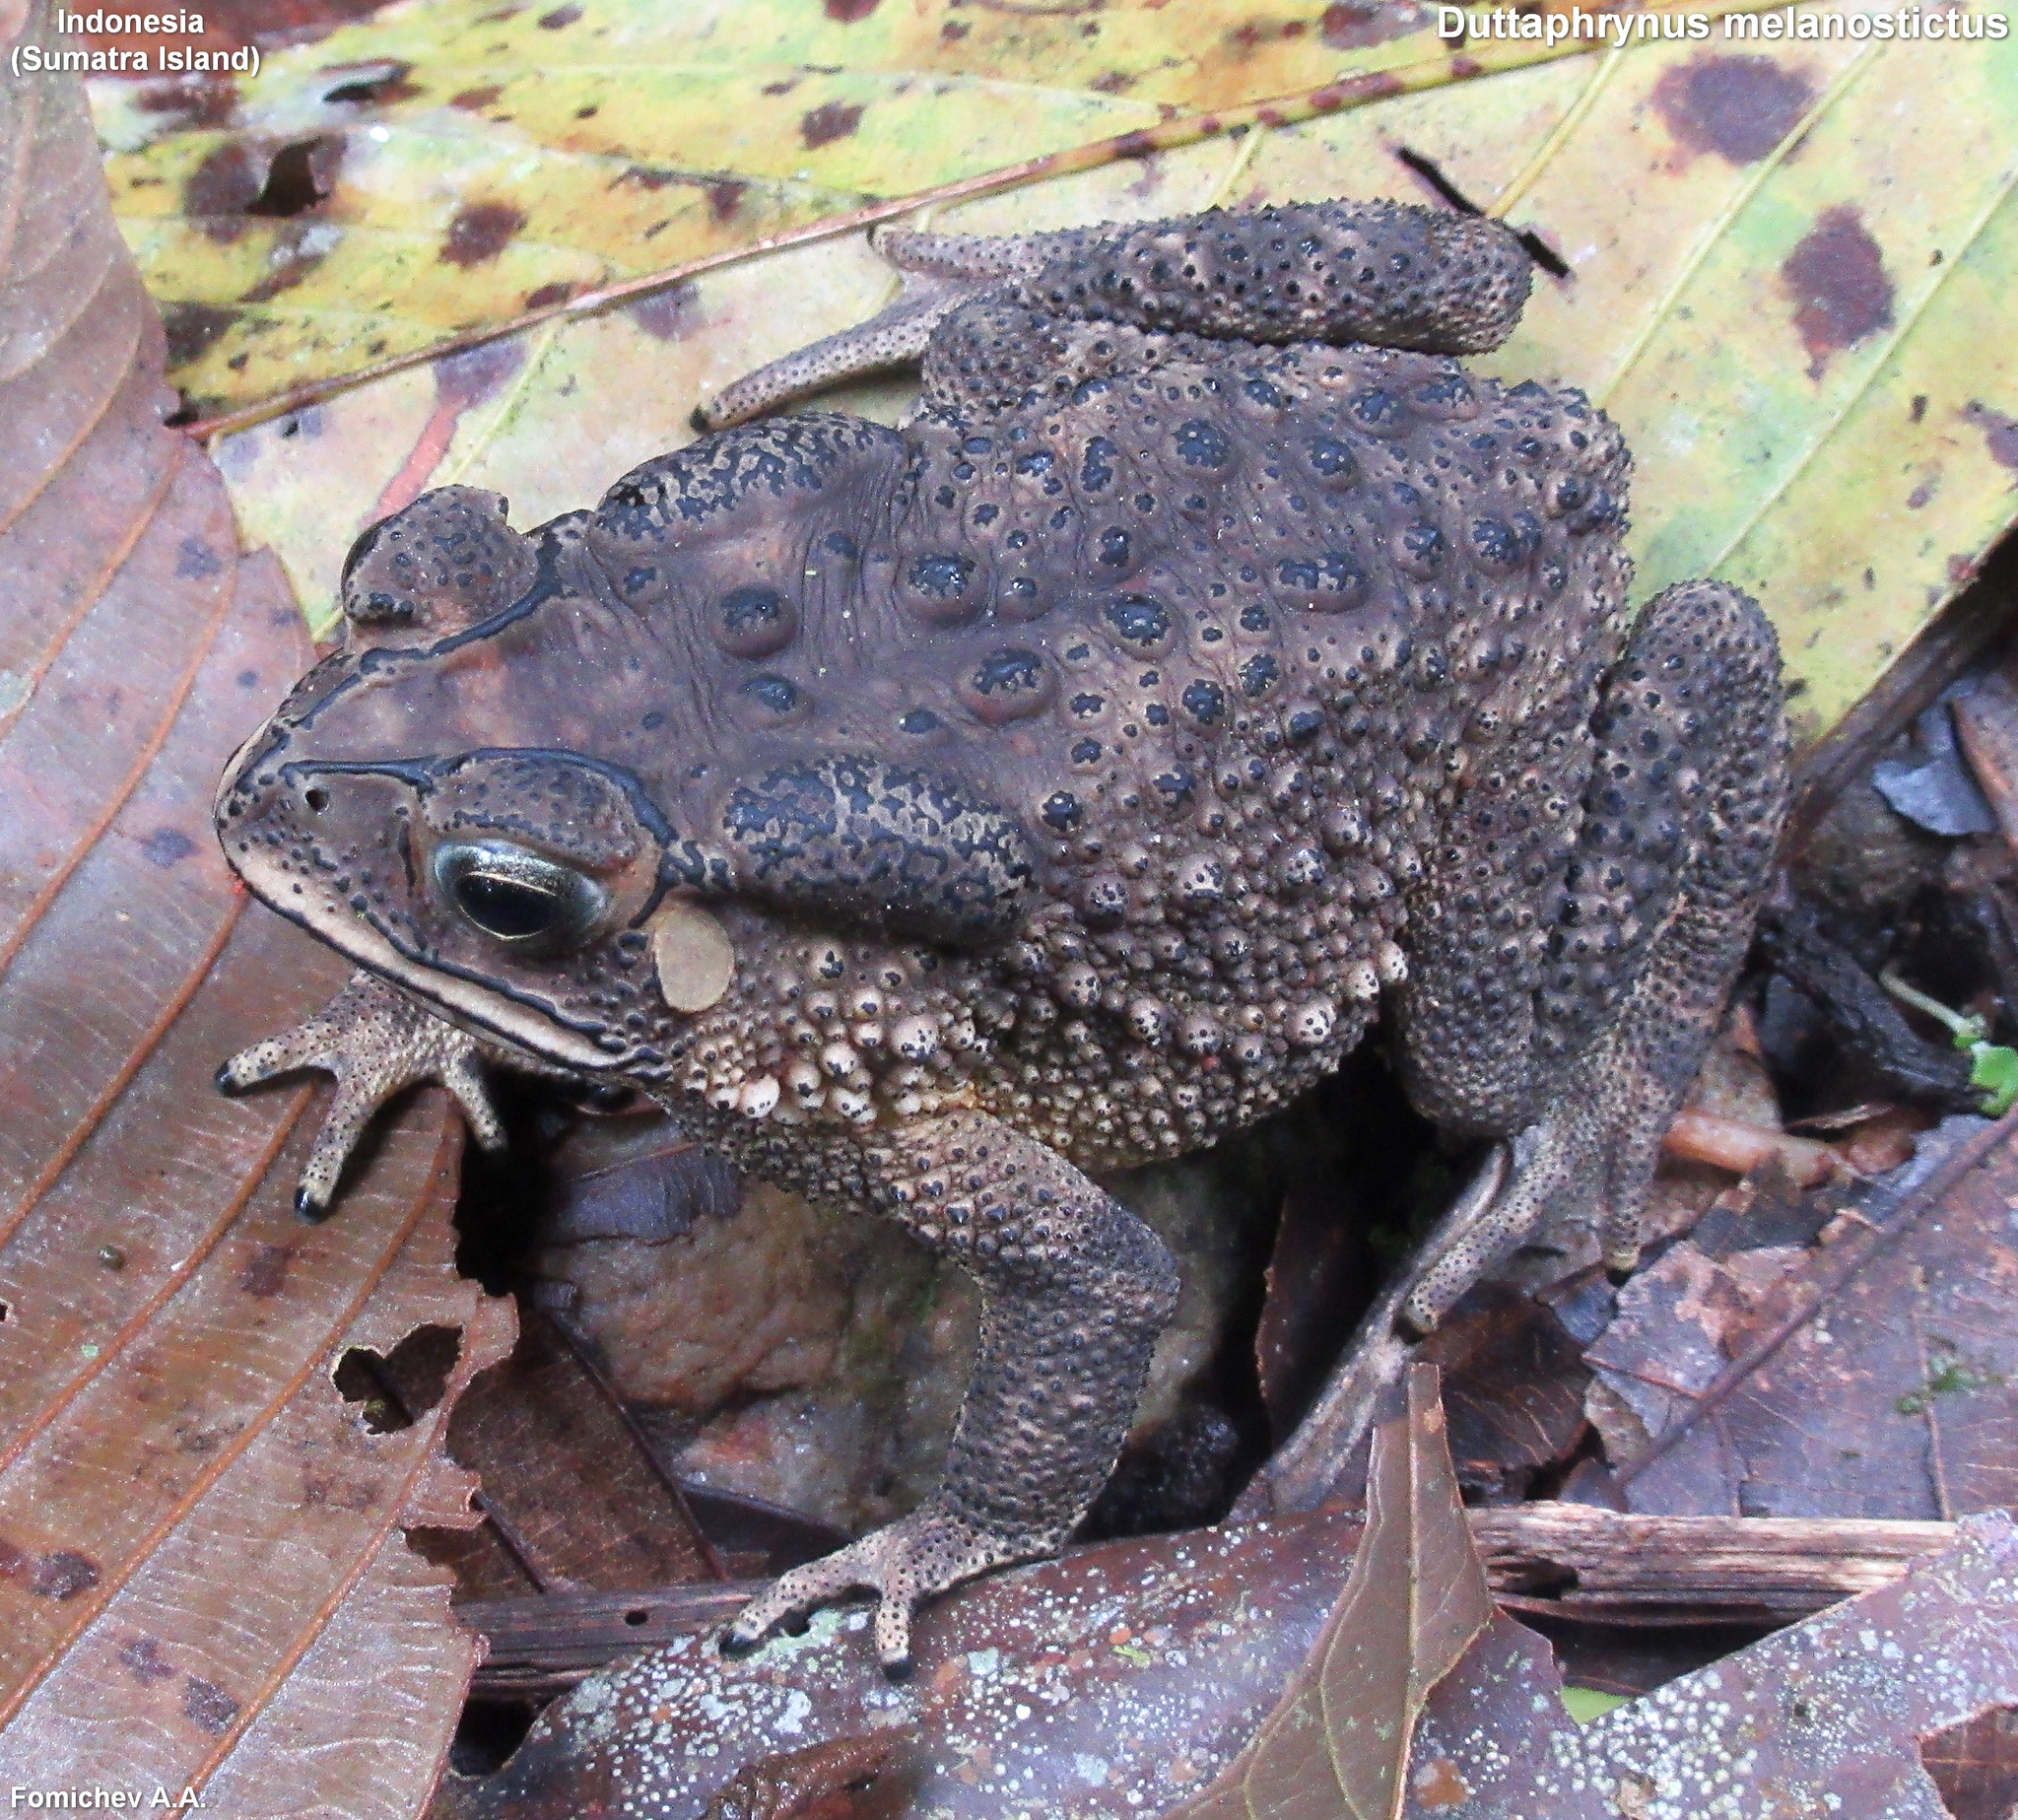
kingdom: Animalia
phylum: Chordata
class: Amphibia
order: Anura
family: Bufonidae
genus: Duttaphrynus
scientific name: Duttaphrynus melanostictus
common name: Common sunda toad
